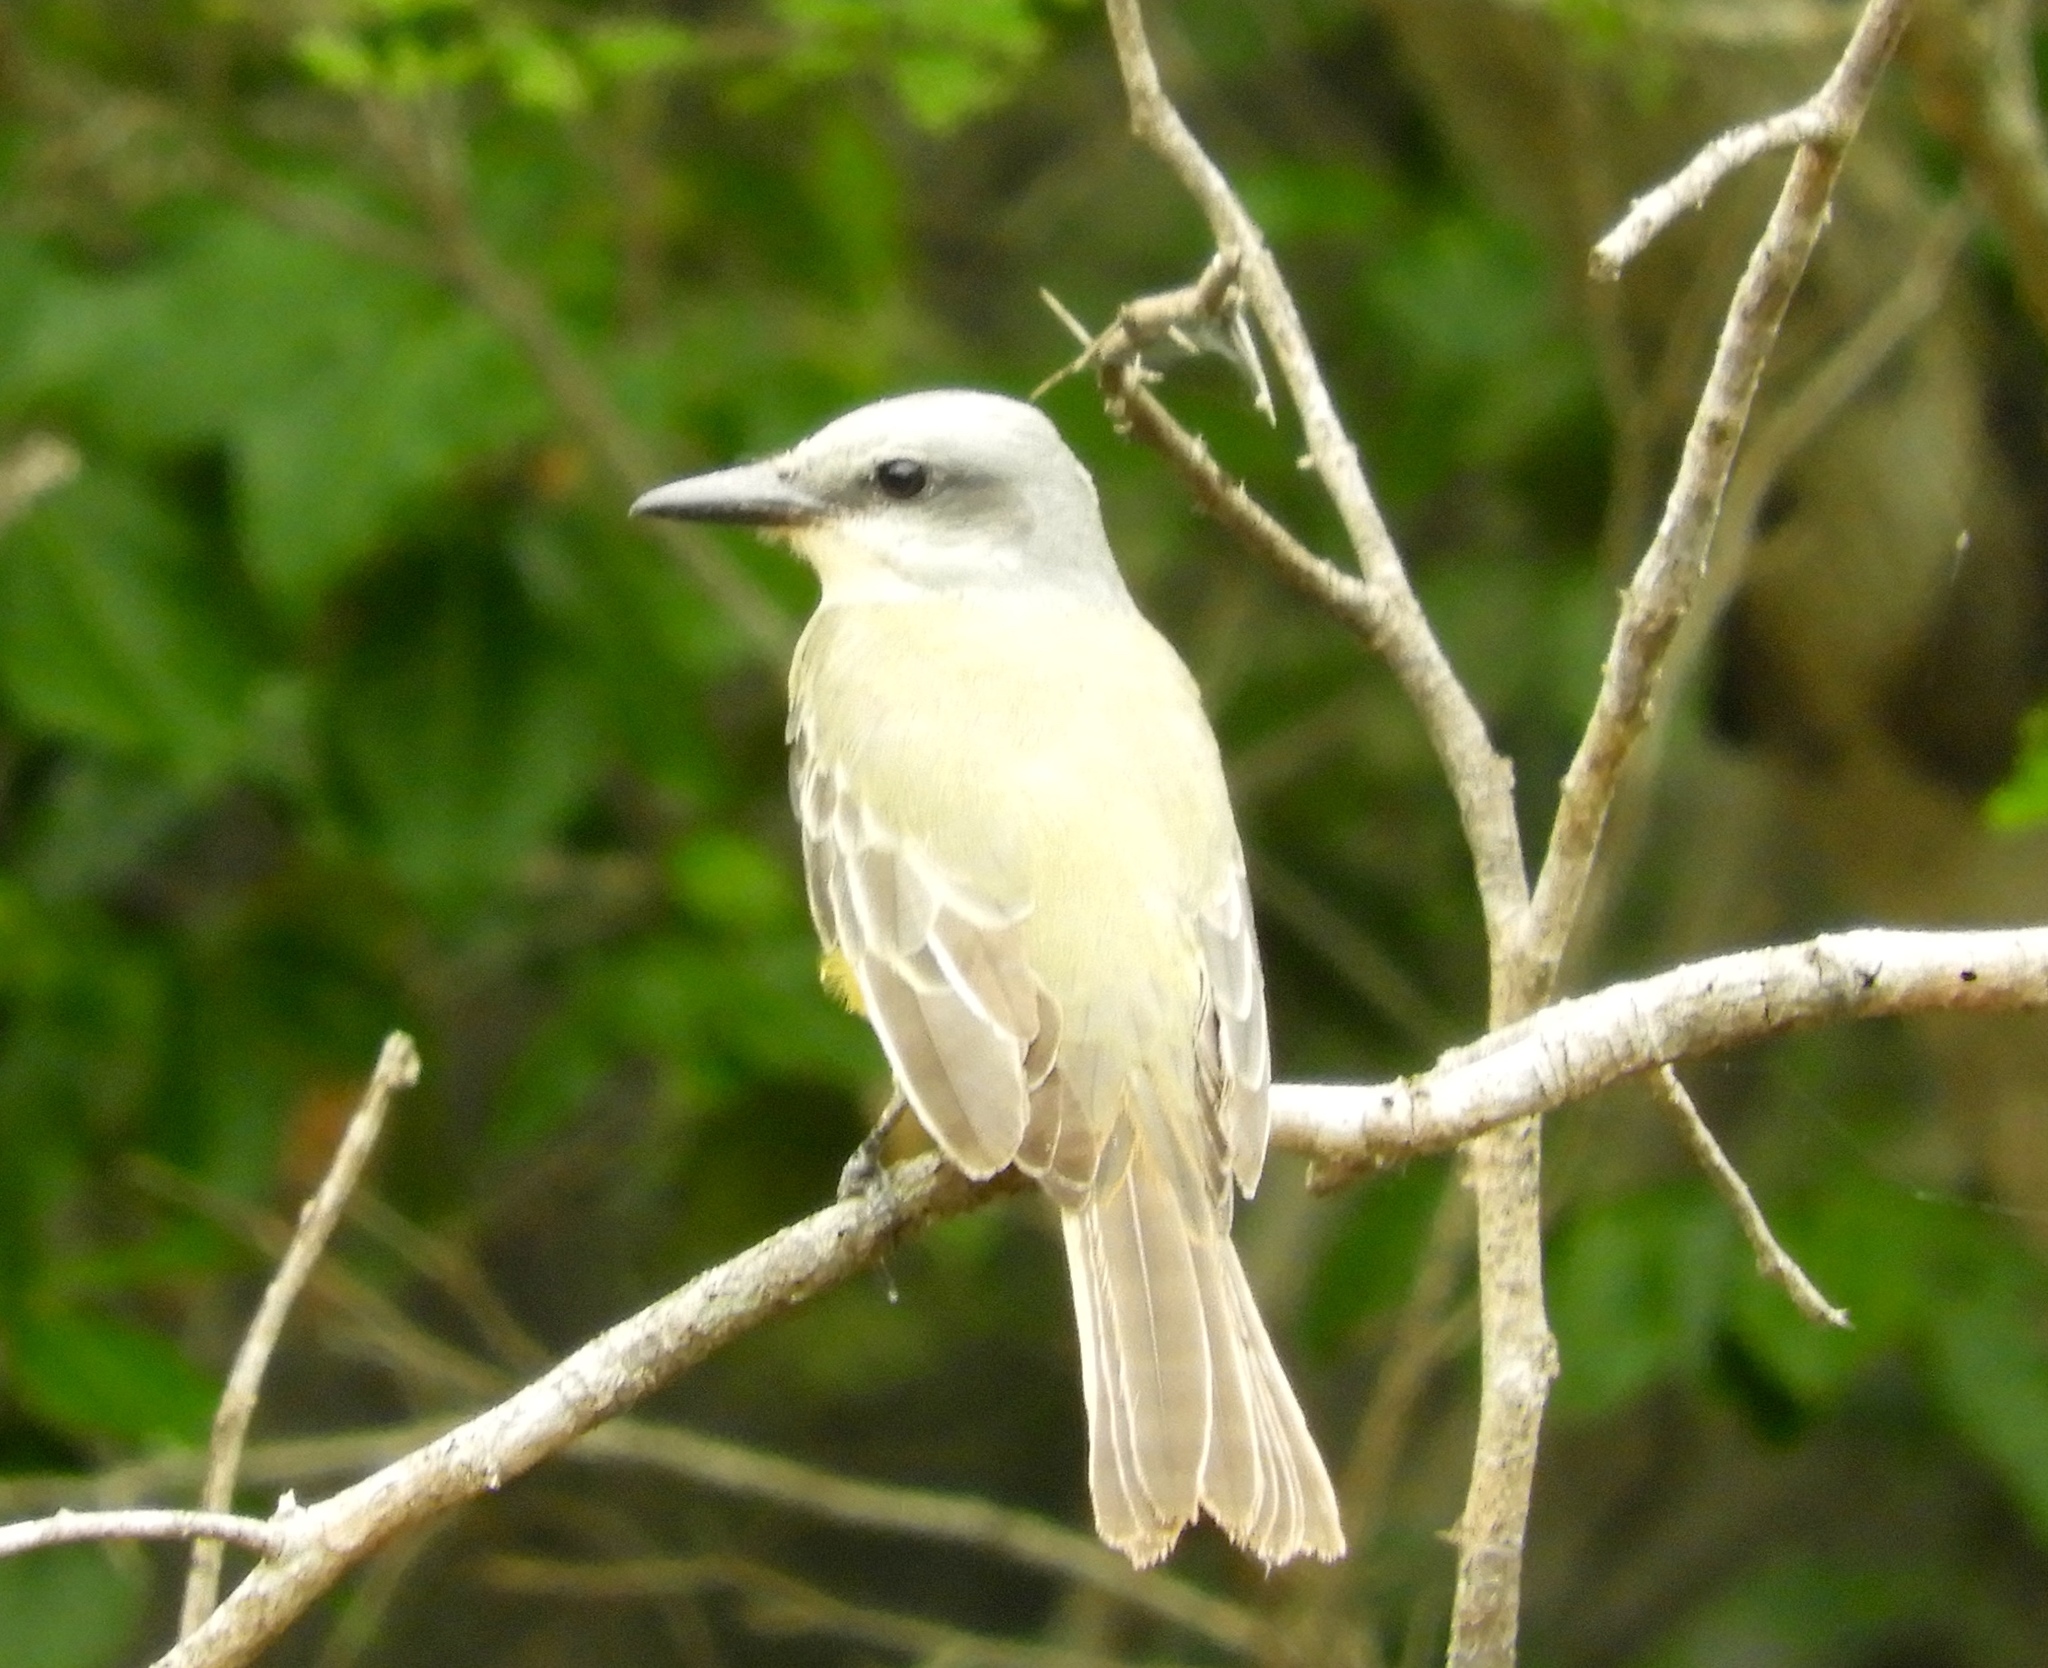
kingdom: Animalia
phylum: Chordata
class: Aves
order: Passeriformes
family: Tyrannidae
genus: Tyrannus
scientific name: Tyrannus melancholicus
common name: Tropical kingbird
